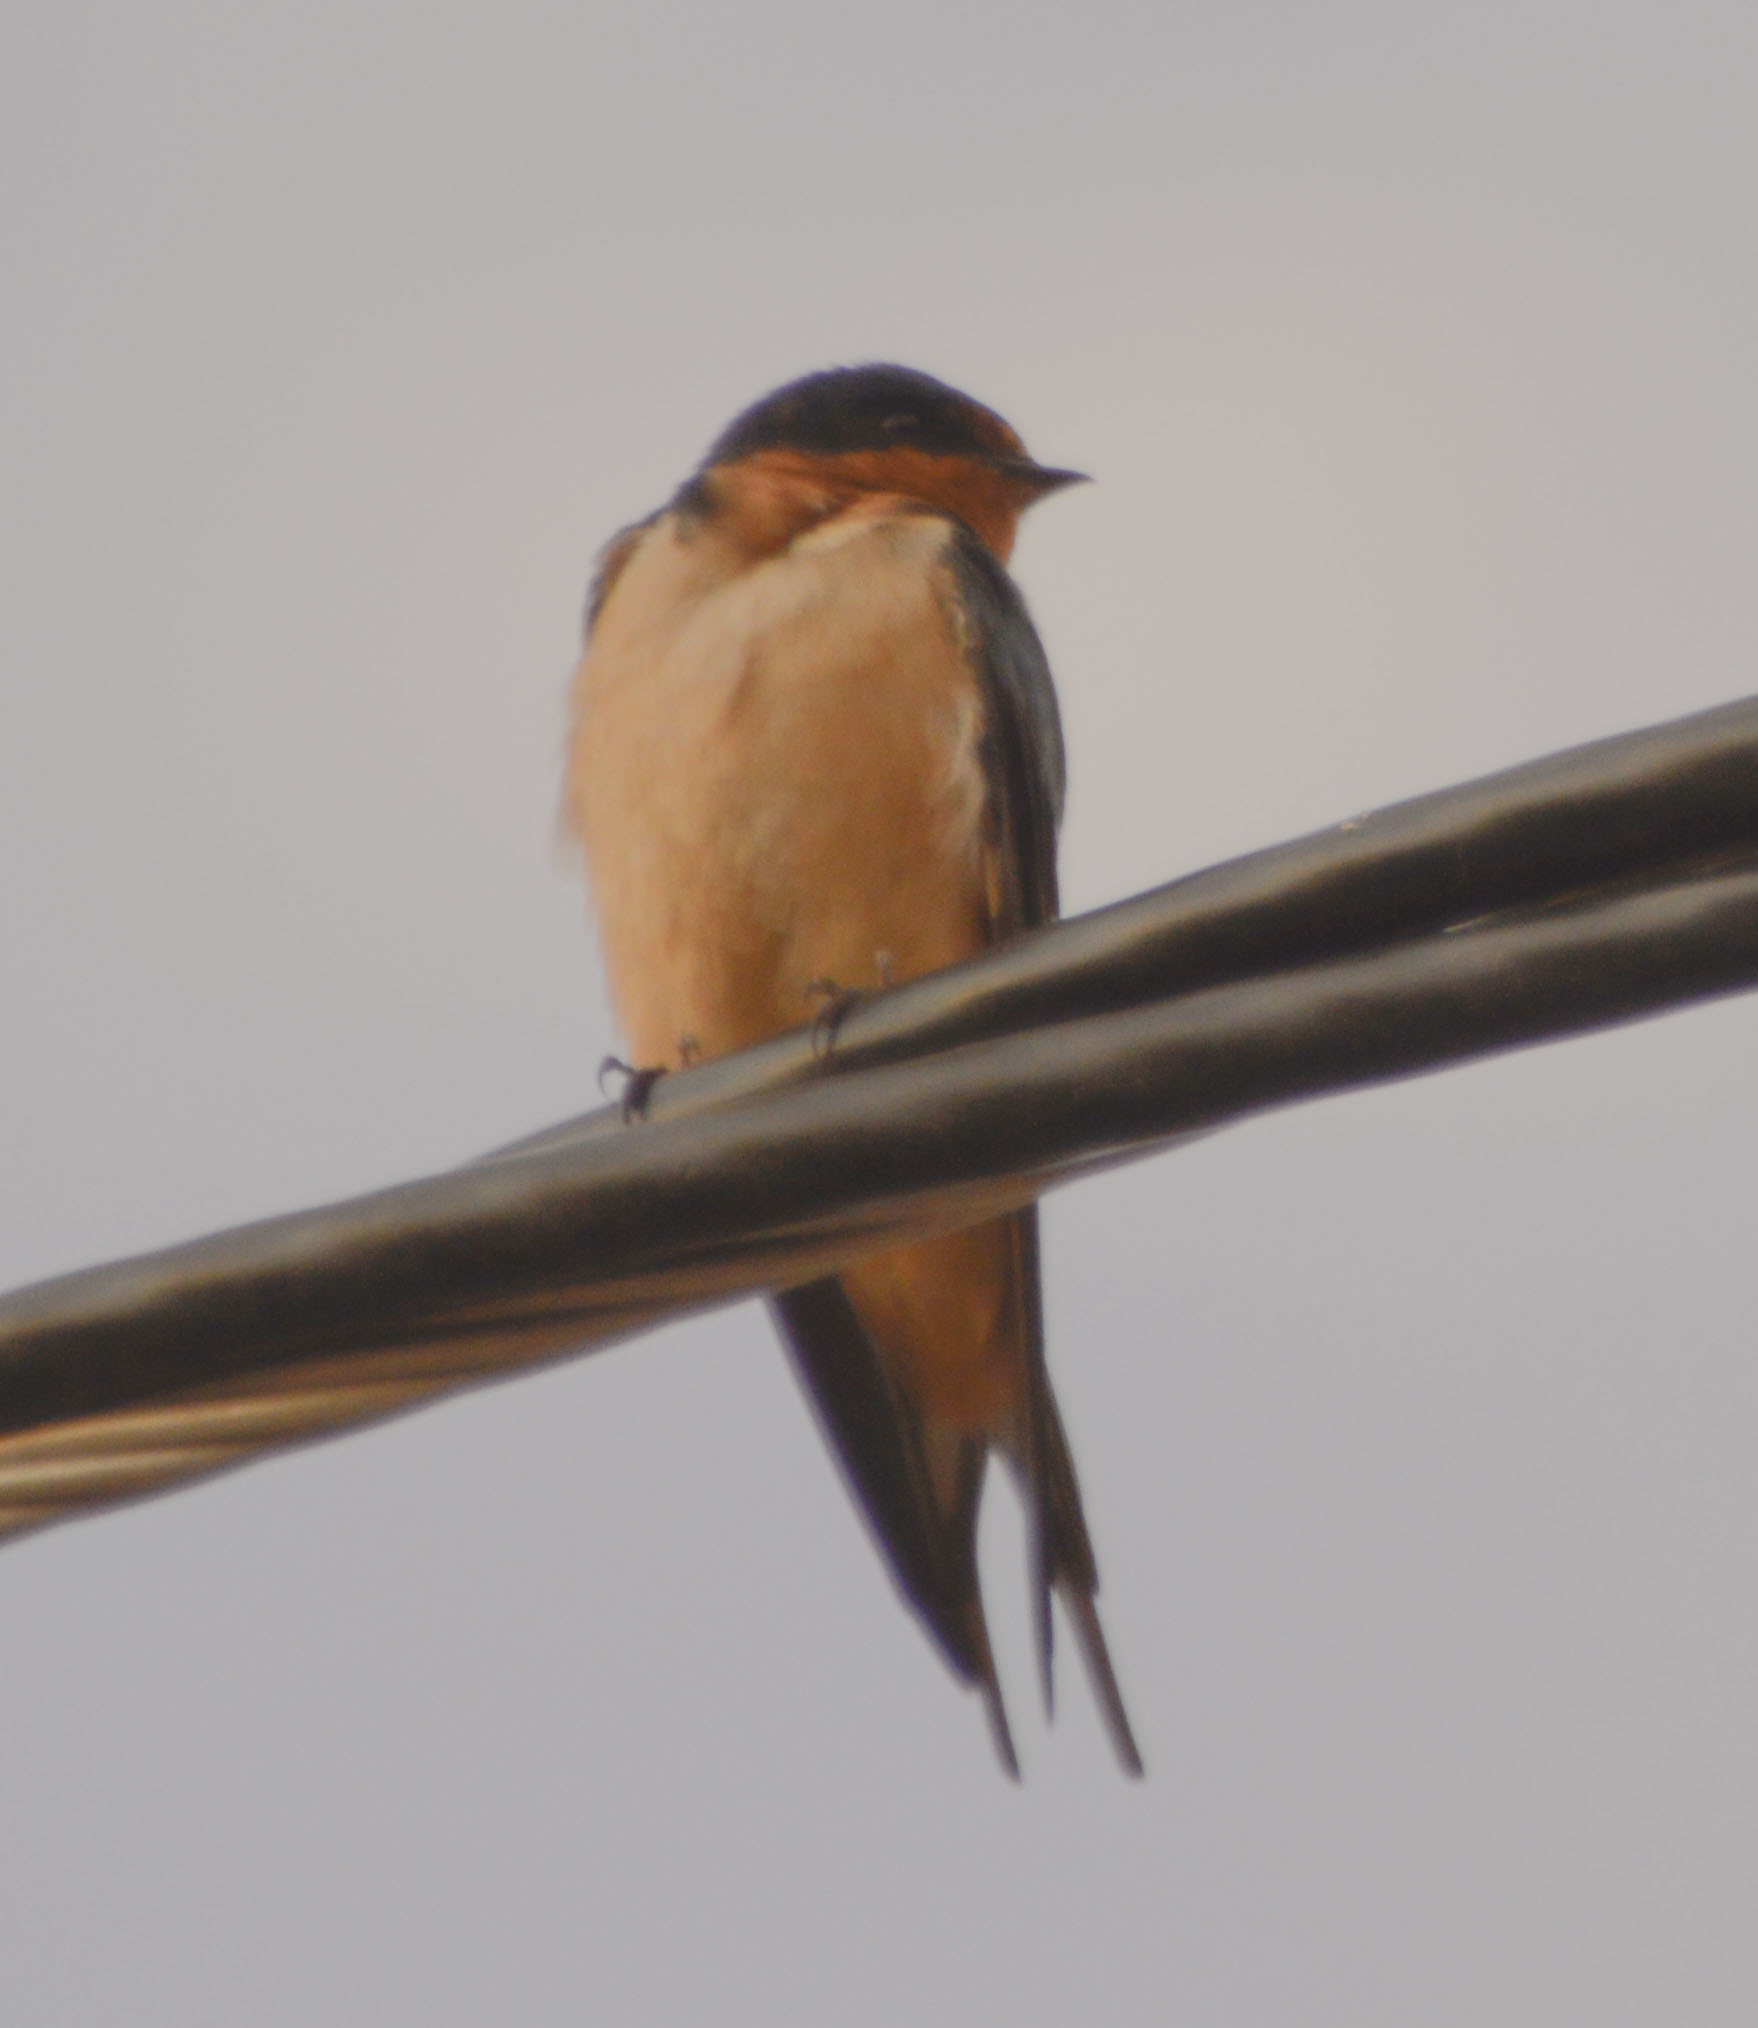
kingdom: Animalia
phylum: Chordata
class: Aves
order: Passeriformes
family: Hirundinidae
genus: Hirundo
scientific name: Hirundo rustica
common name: Barn swallow
